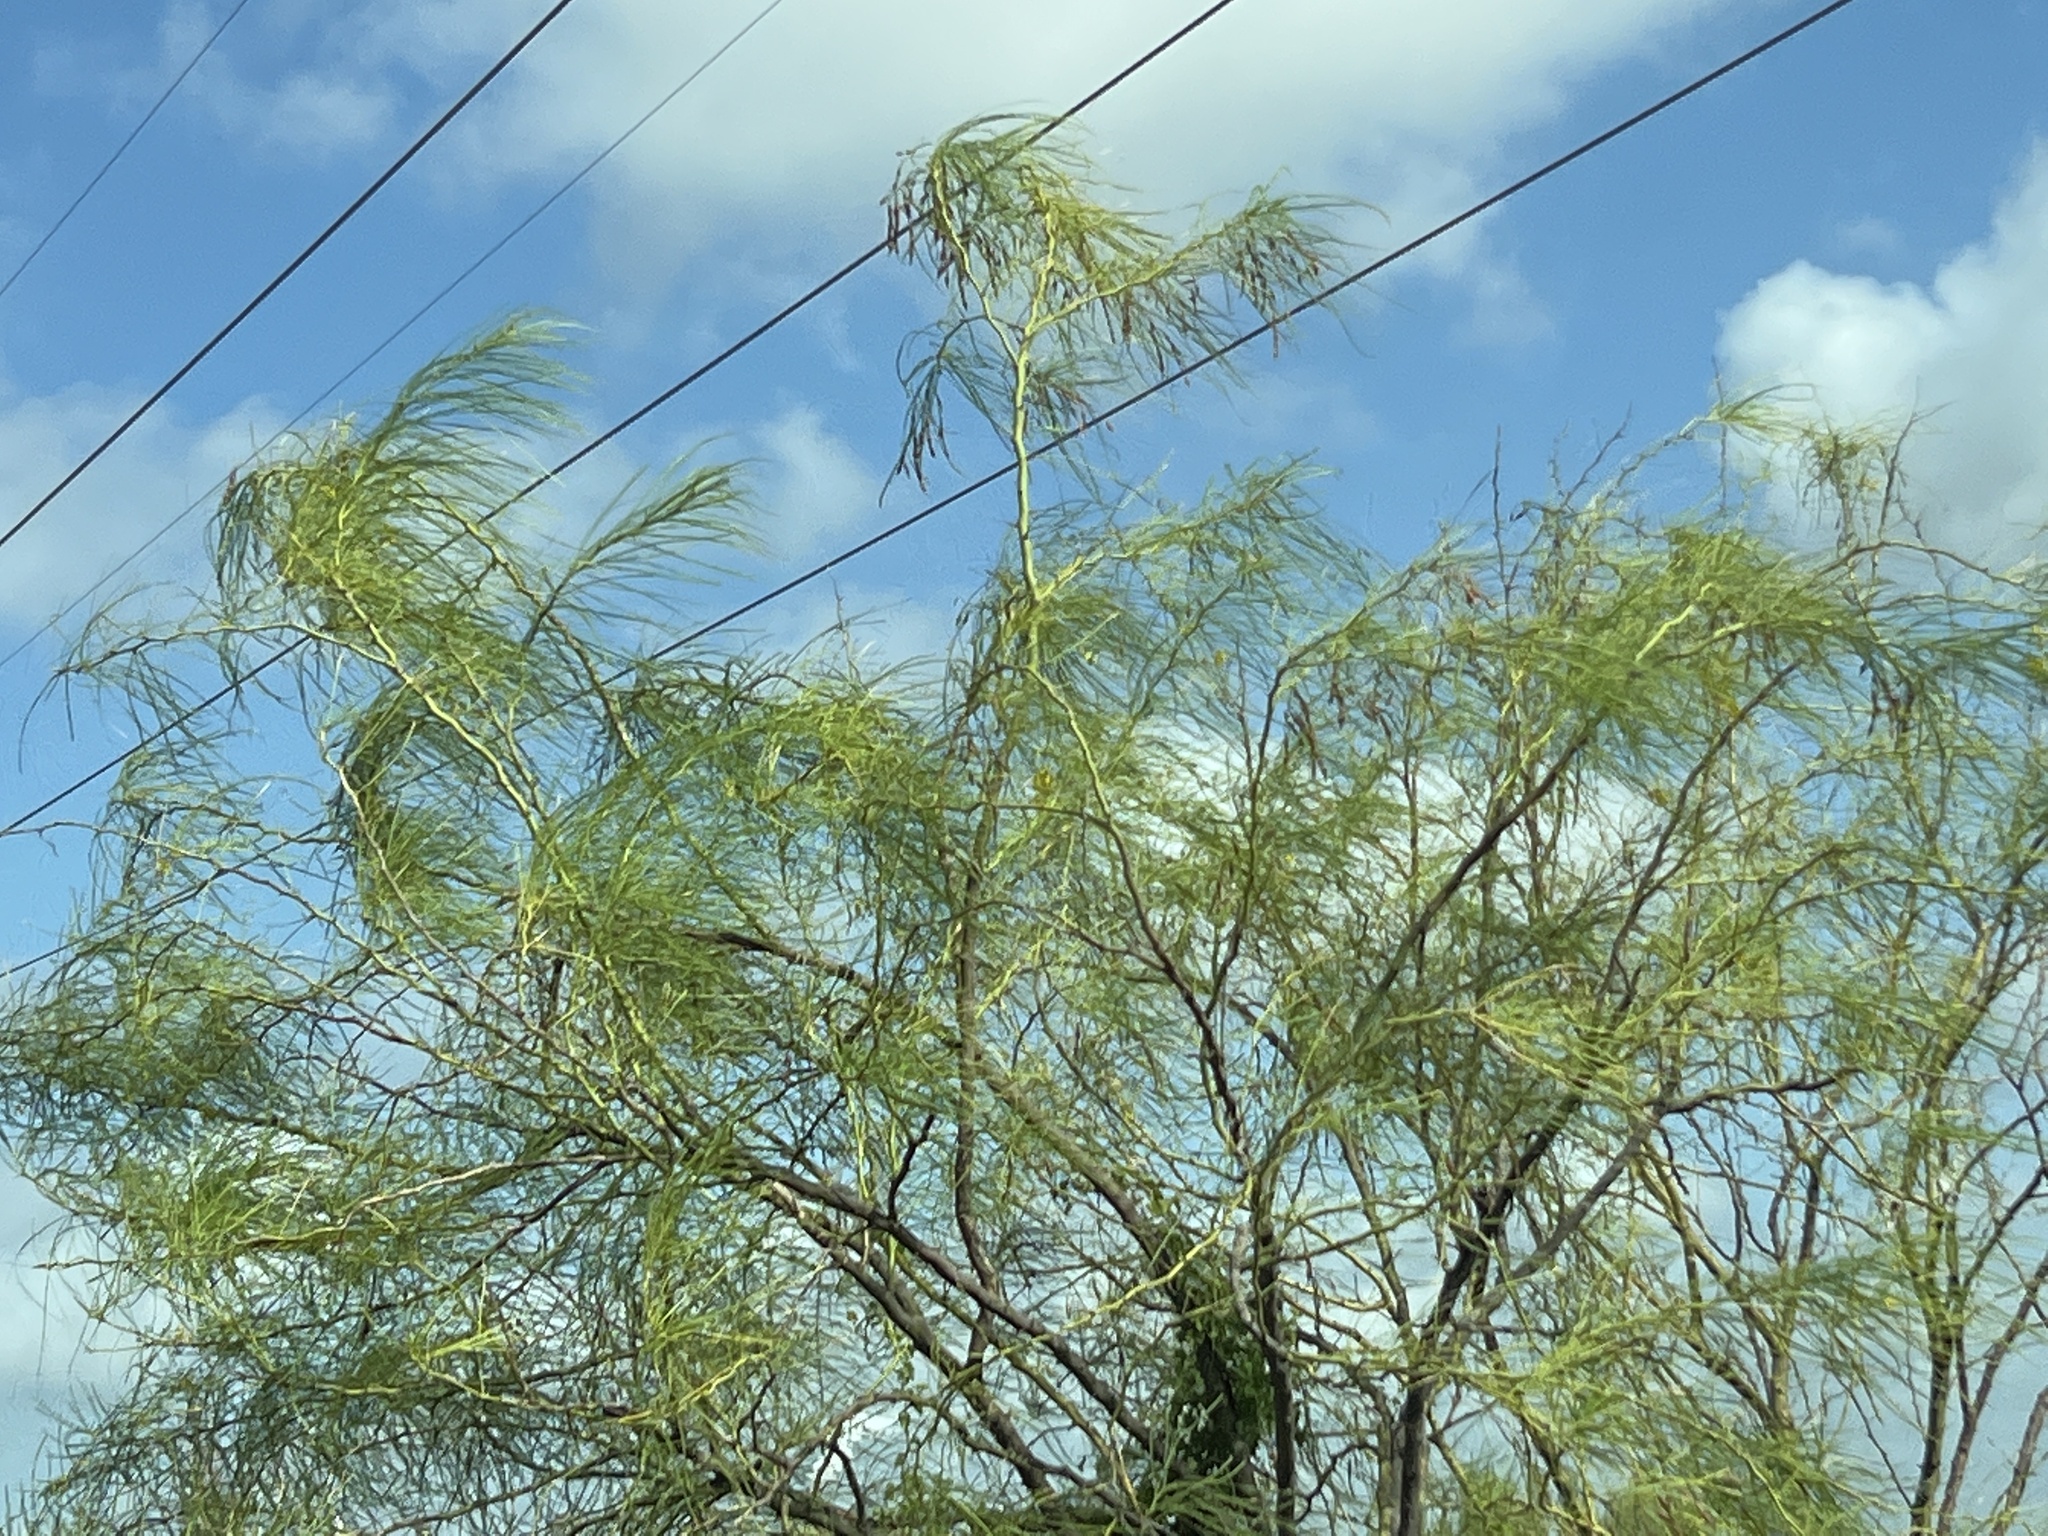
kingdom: Plantae
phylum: Tracheophyta
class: Magnoliopsida
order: Fabales
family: Fabaceae
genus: Parkinsonia
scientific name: Parkinsonia aculeata
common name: Jerusalem thorn
